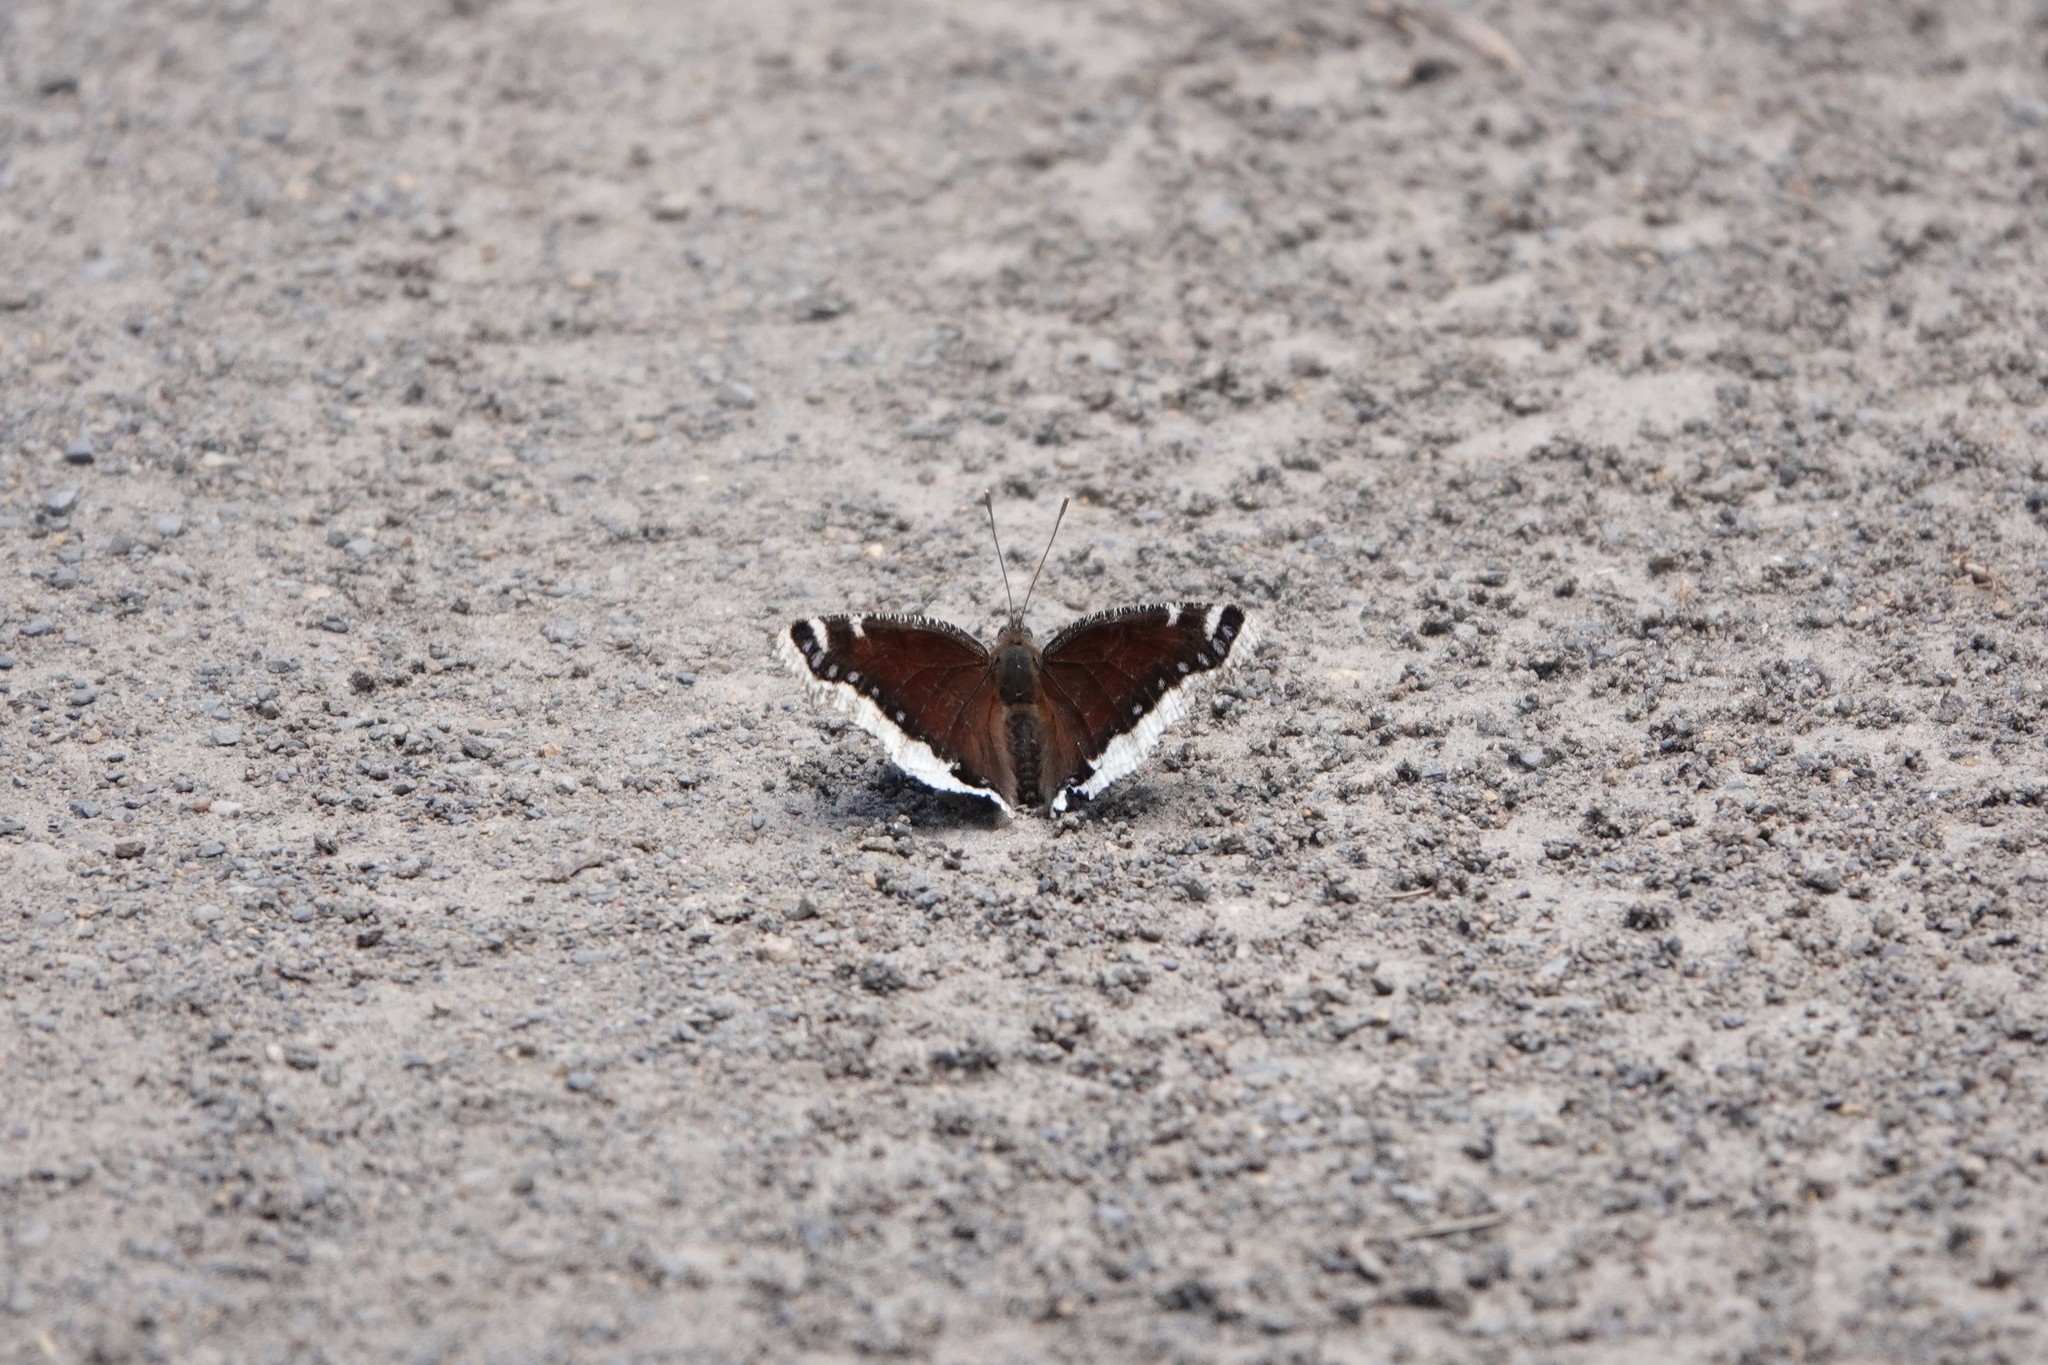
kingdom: Animalia
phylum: Arthropoda
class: Insecta
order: Lepidoptera
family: Nymphalidae
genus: Nymphalis
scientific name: Nymphalis antiopa
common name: Camberwell beauty
